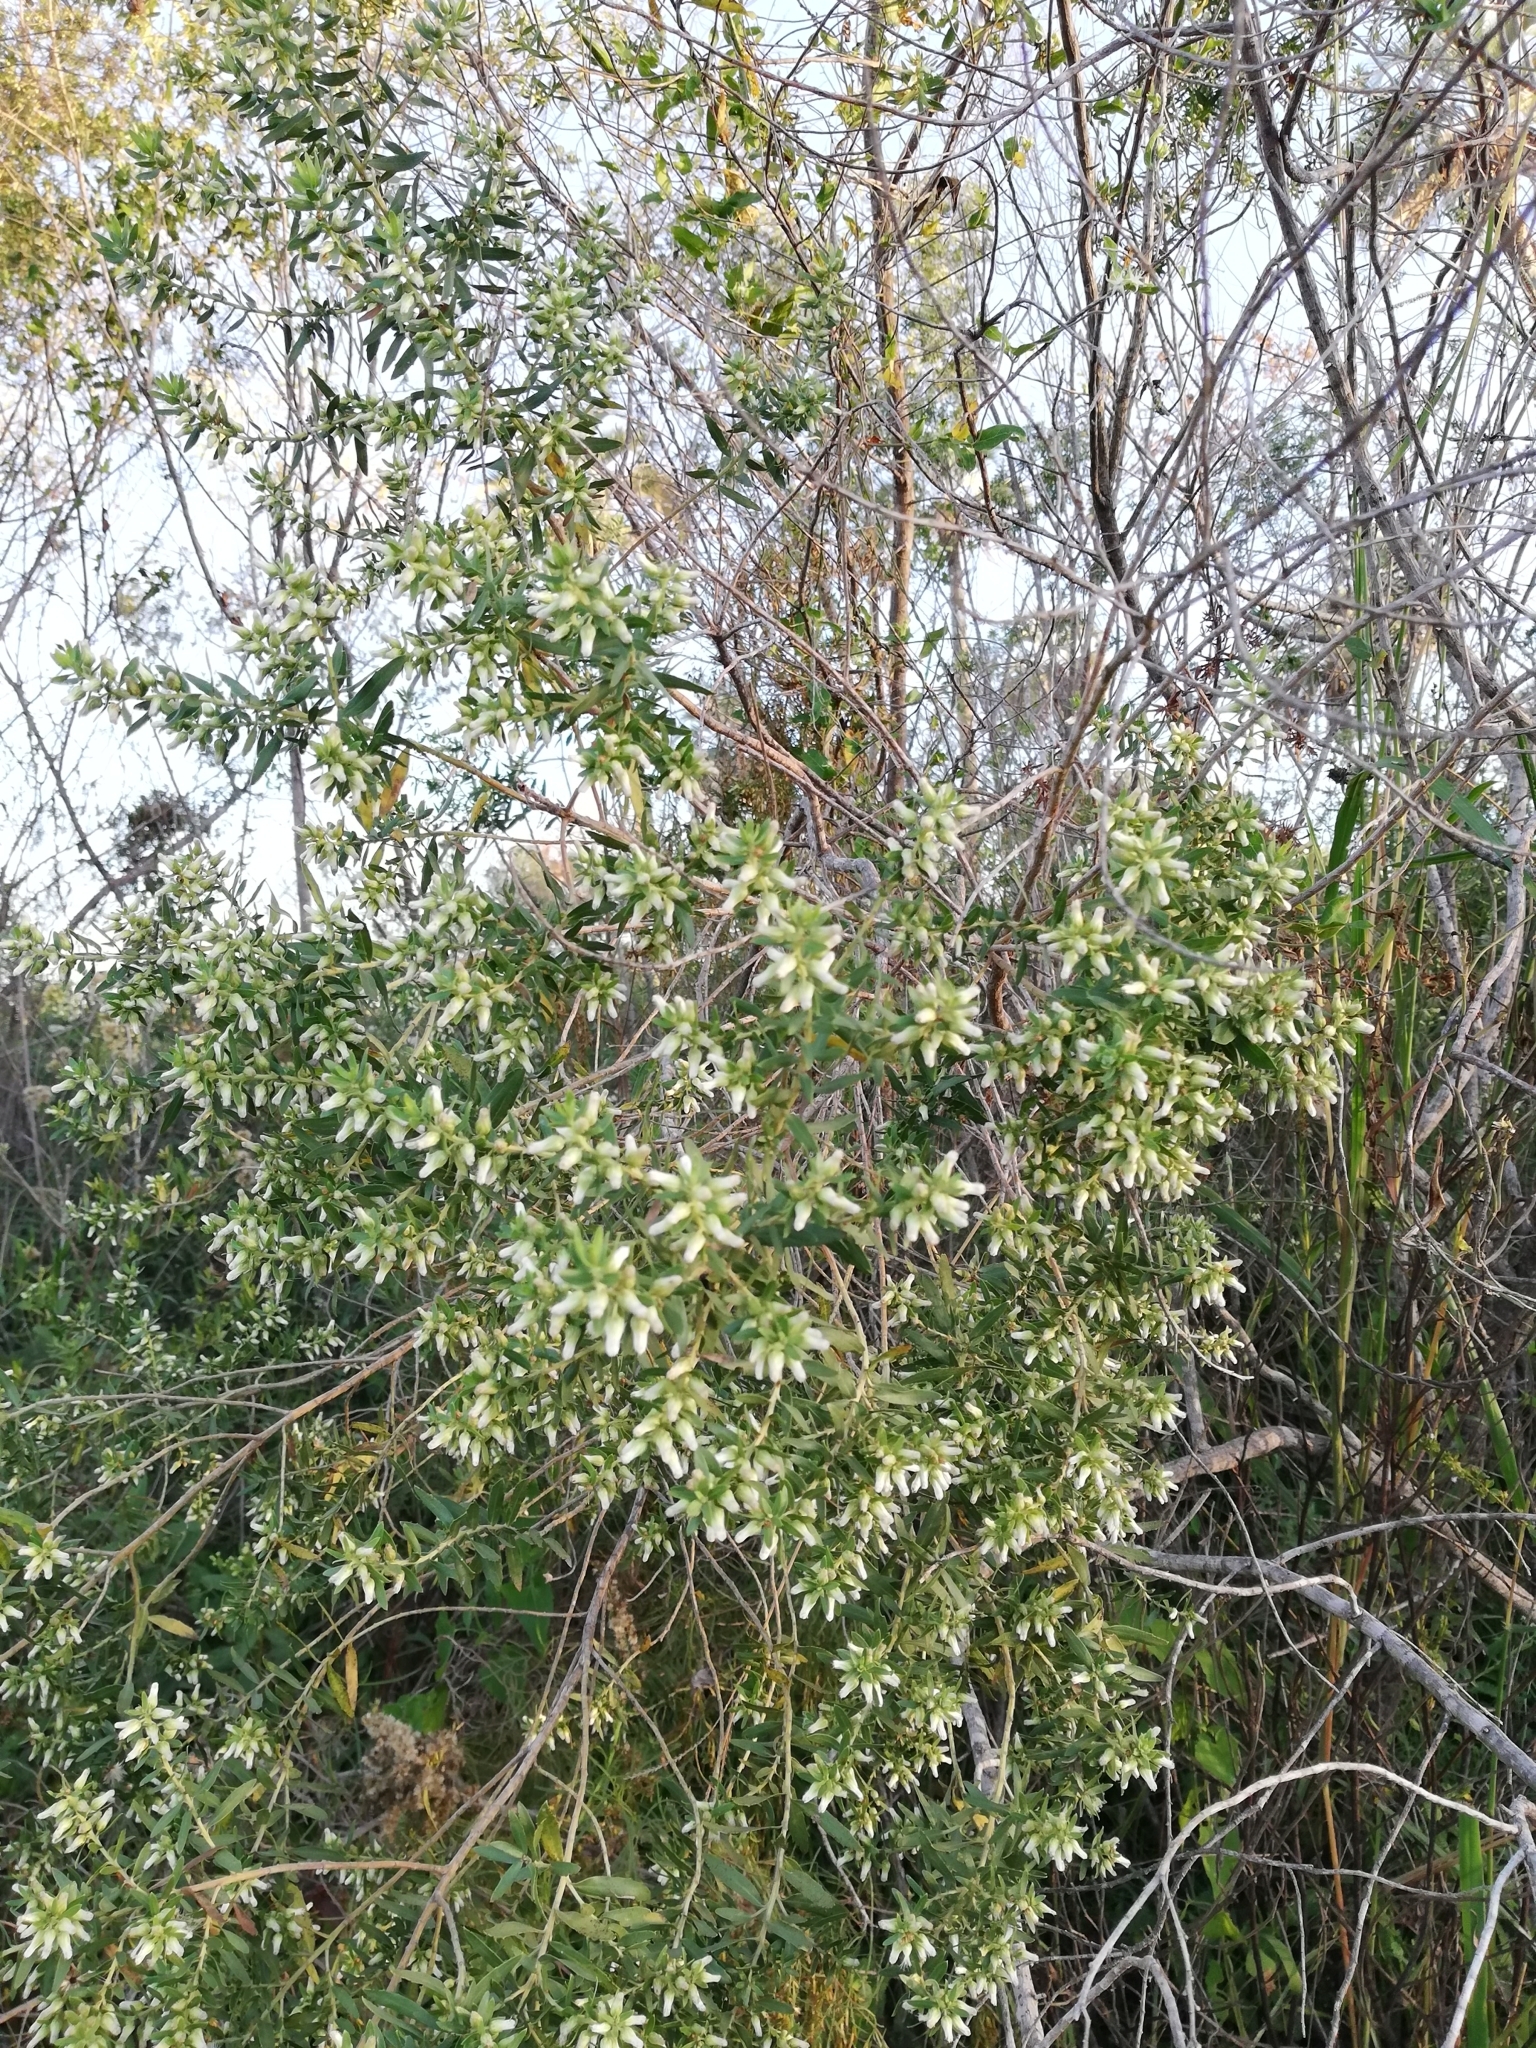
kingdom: Plantae
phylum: Tracheophyta
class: Magnoliopsida
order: Asterales
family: Asteraceae
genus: Baccharis
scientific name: Baccharis dracunculifolia
